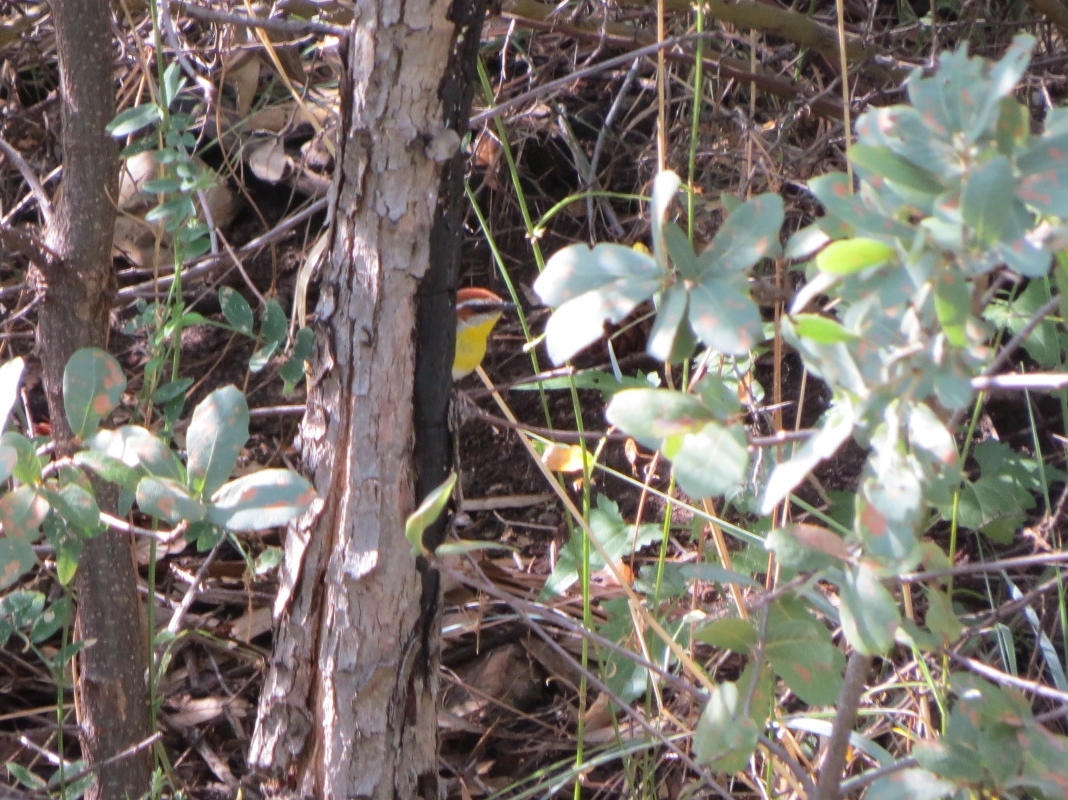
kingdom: Animalia
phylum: Chordata
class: Aves
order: Passeriformes
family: Parulidae
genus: Basileuterus
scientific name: Basileuterus rufifrons
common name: Rufous-capped warbler
